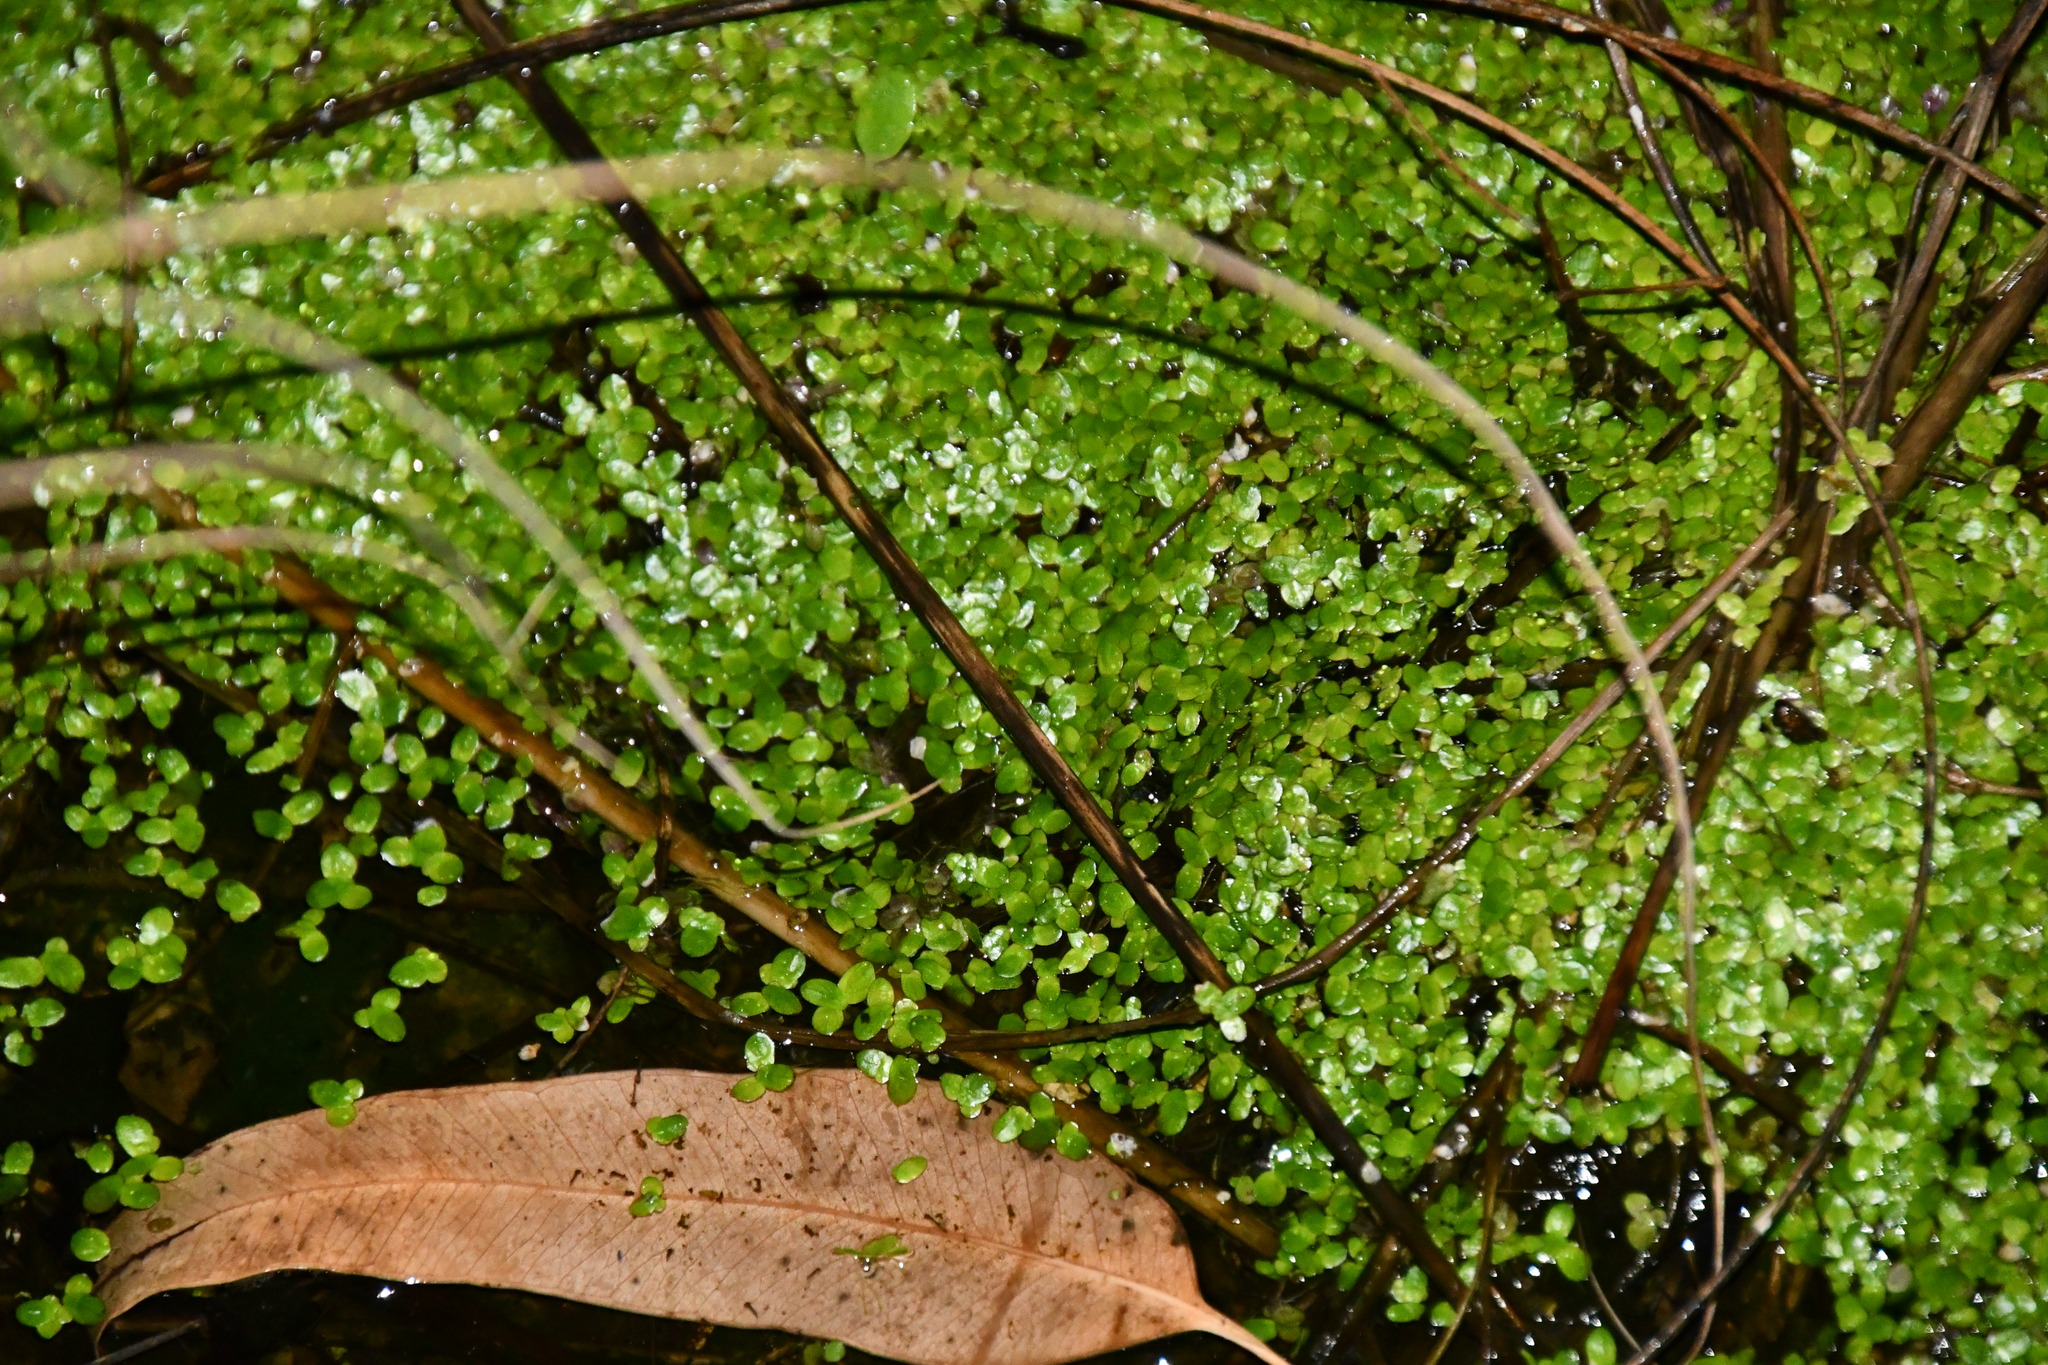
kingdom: Plantae
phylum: Tracheophyta
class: Liliopsida
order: Alismatales
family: Araceae
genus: Lemna
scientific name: Lemna disperma
